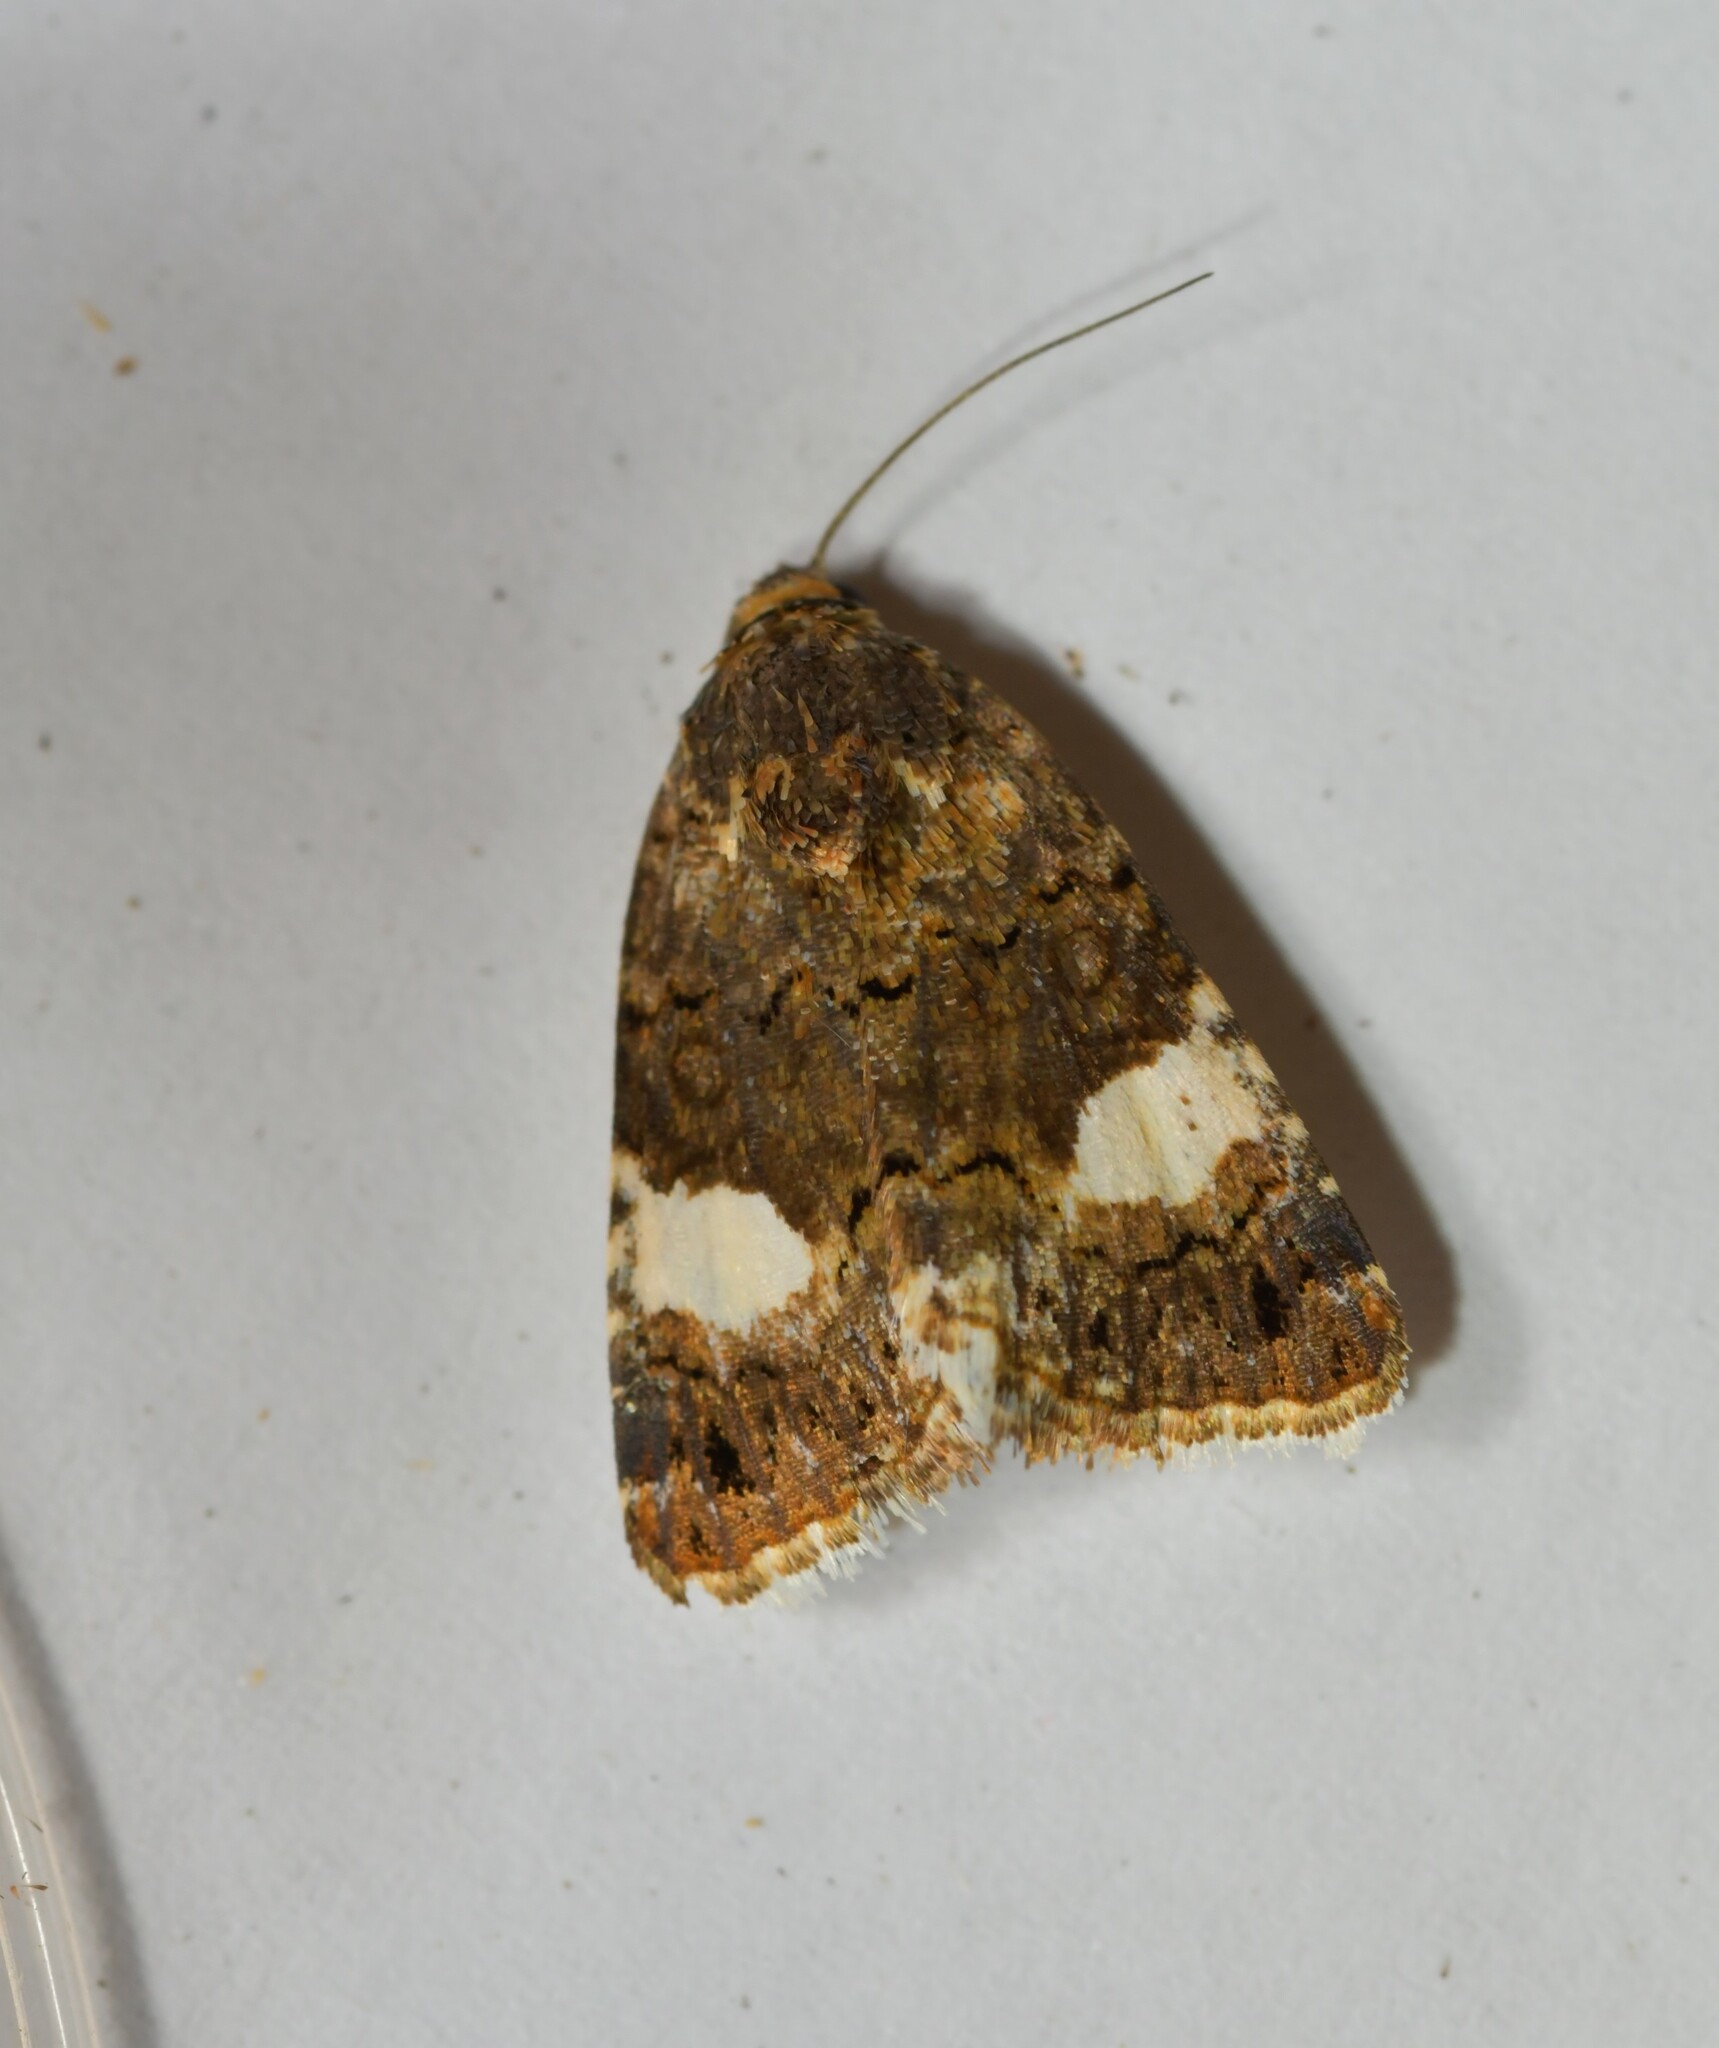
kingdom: Animalia
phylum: Arthropoda
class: Insecta
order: Lepidoptera
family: Erebidae
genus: Tyta
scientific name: Tyta luctuosa
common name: Four-spotted
